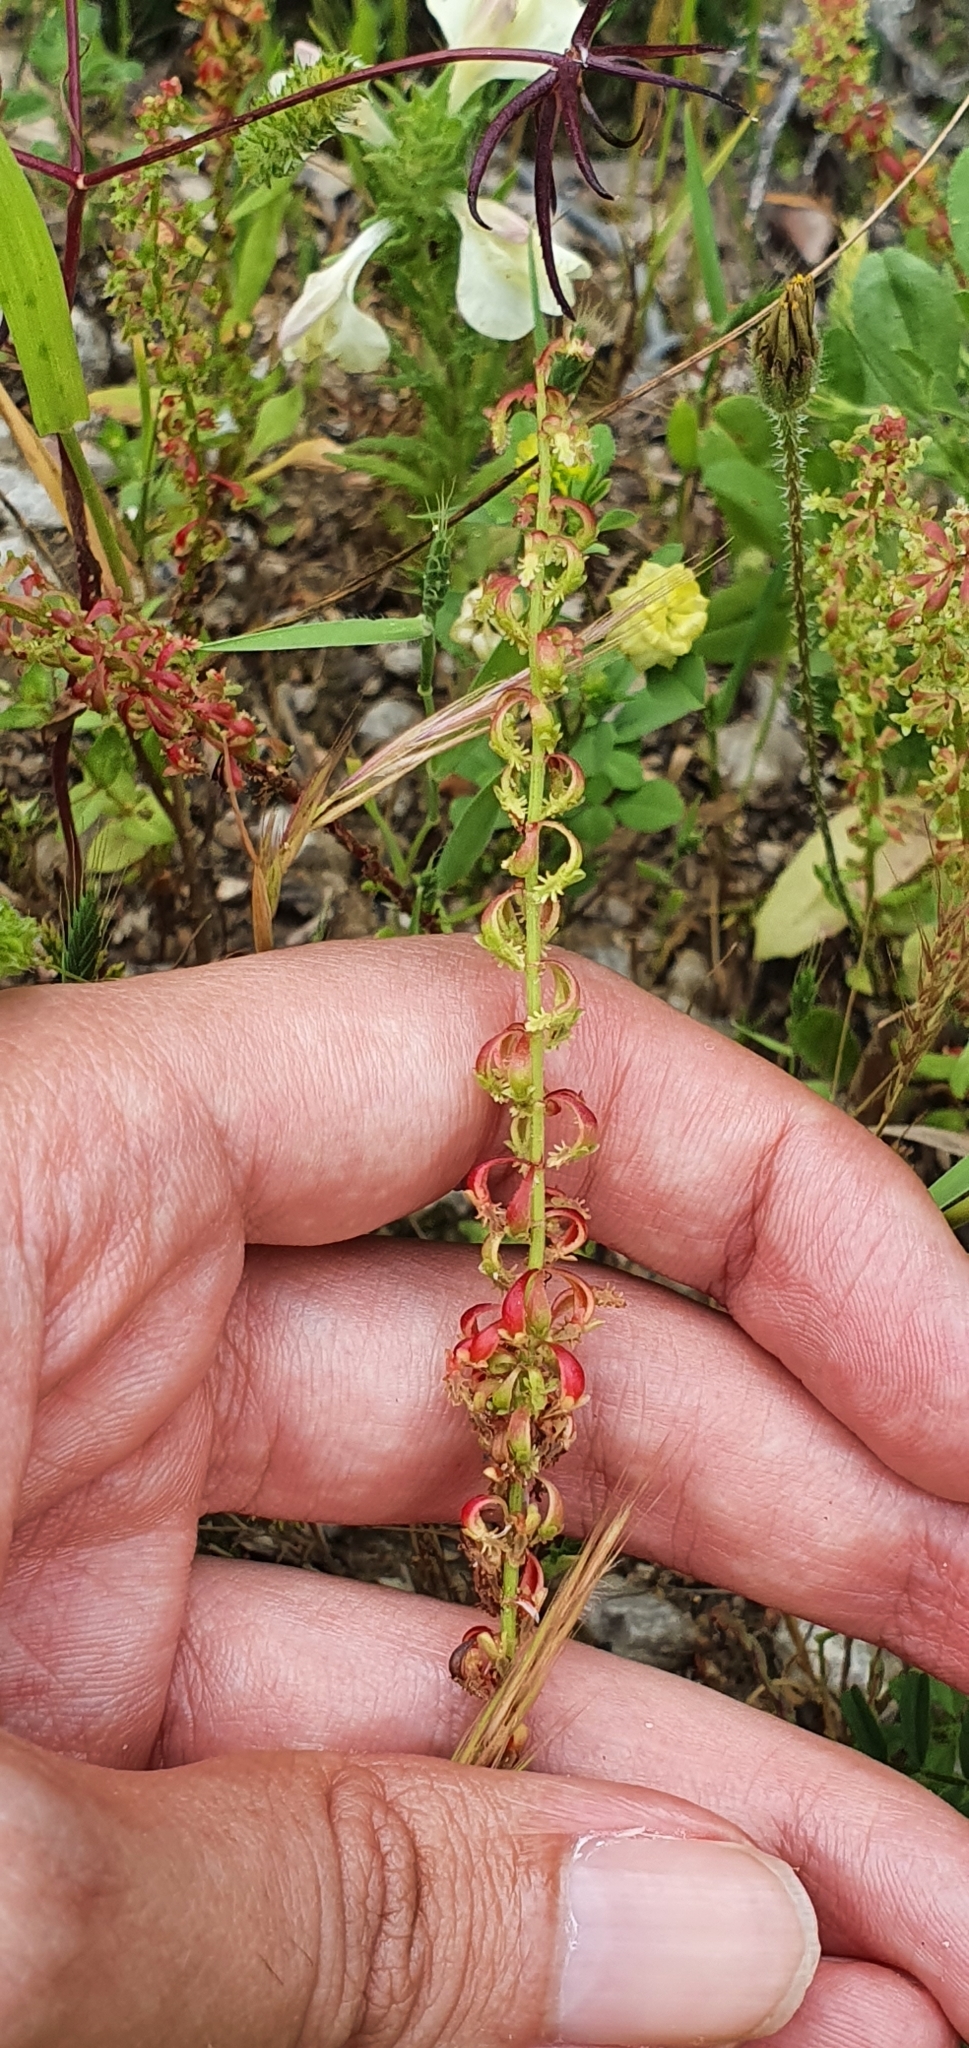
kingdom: Plantae
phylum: Tracheophyta
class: Magnoliopsida
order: Caryophyllales
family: Polygonaceae
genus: Rumex
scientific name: Rumex bucephalophorus
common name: Red dock
